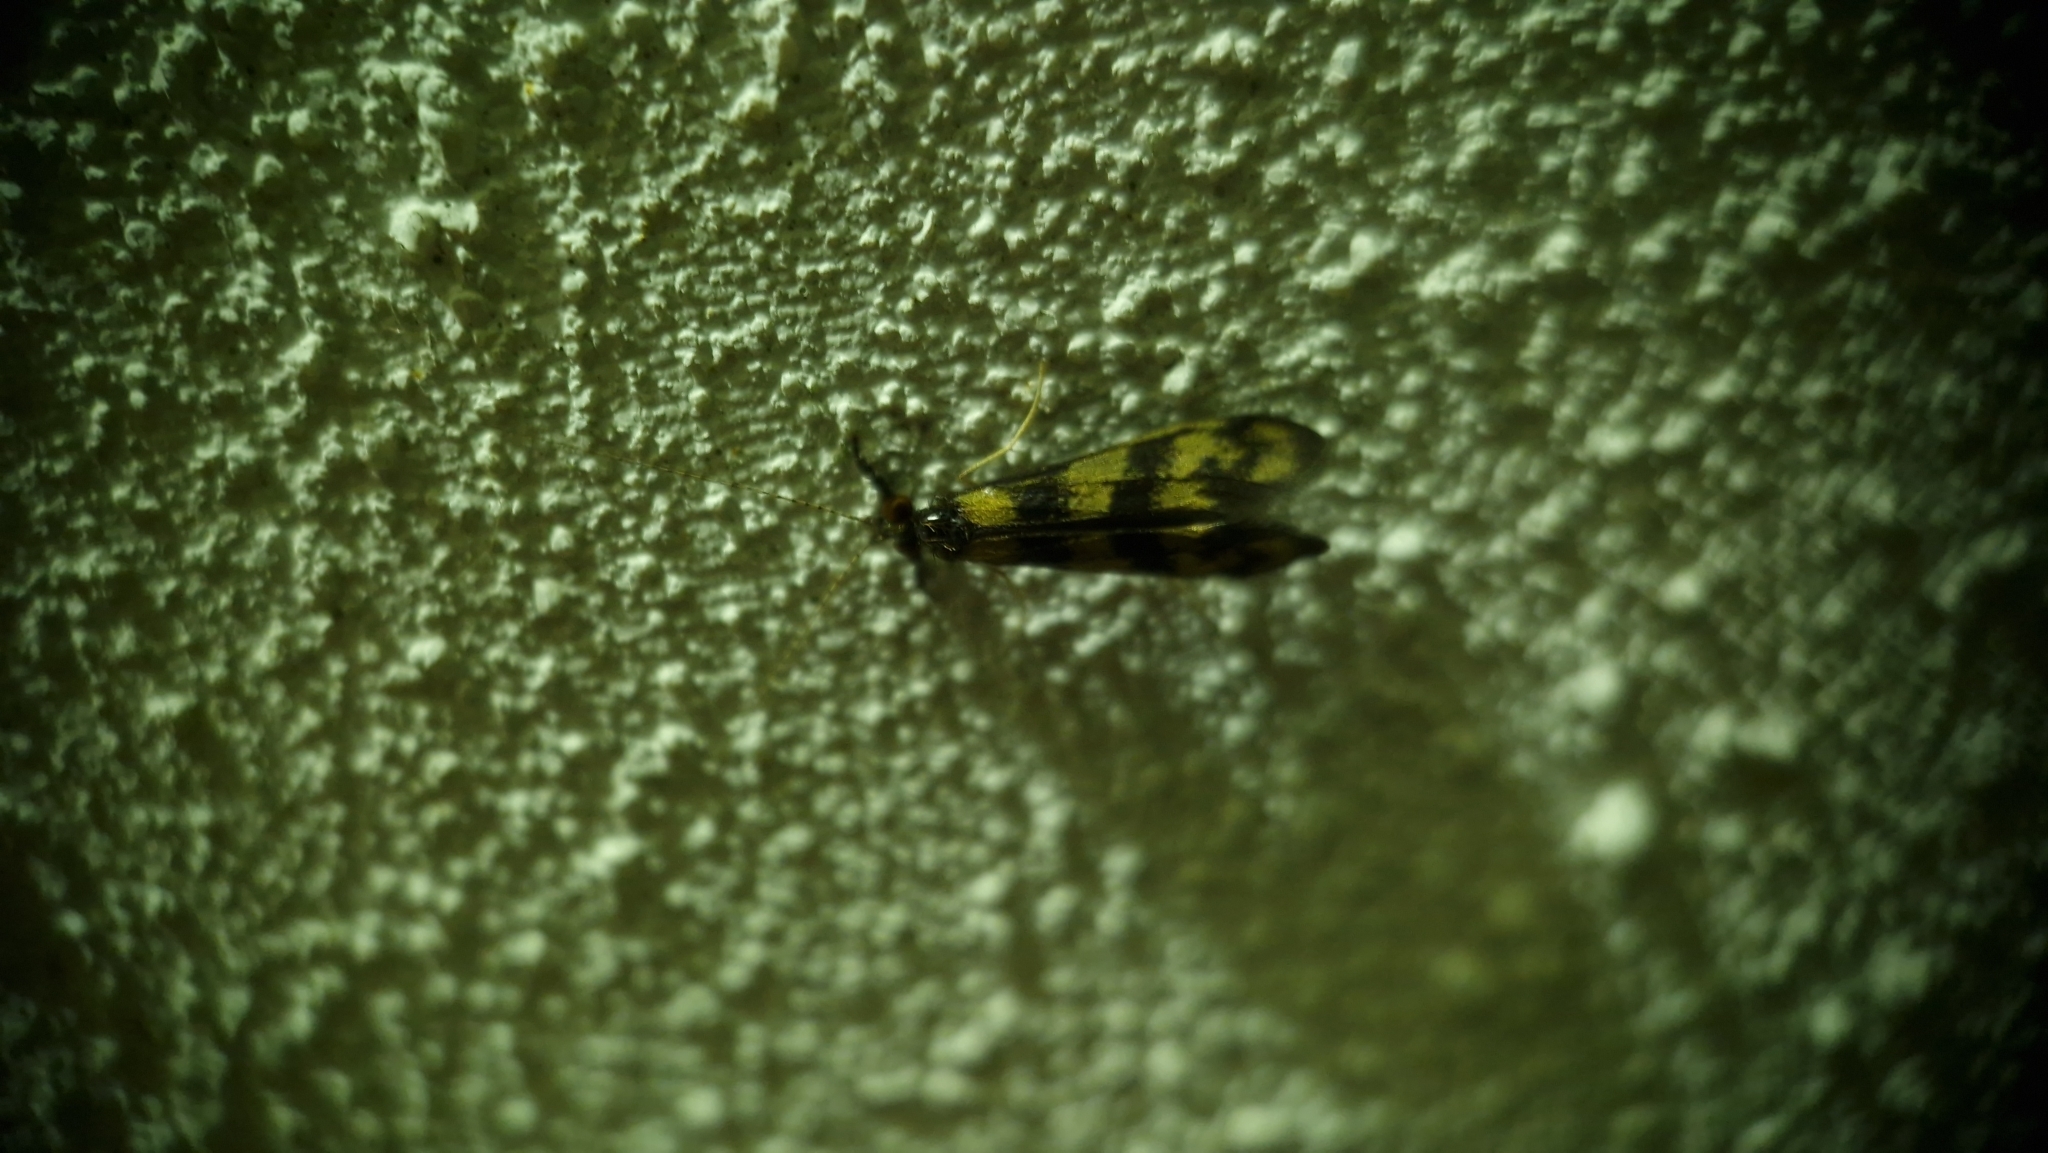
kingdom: Animalia
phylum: Arthropoda
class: Insecta
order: Trichoptera
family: Leptoceridae
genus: Mystacides
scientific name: Mystacides longicornis
